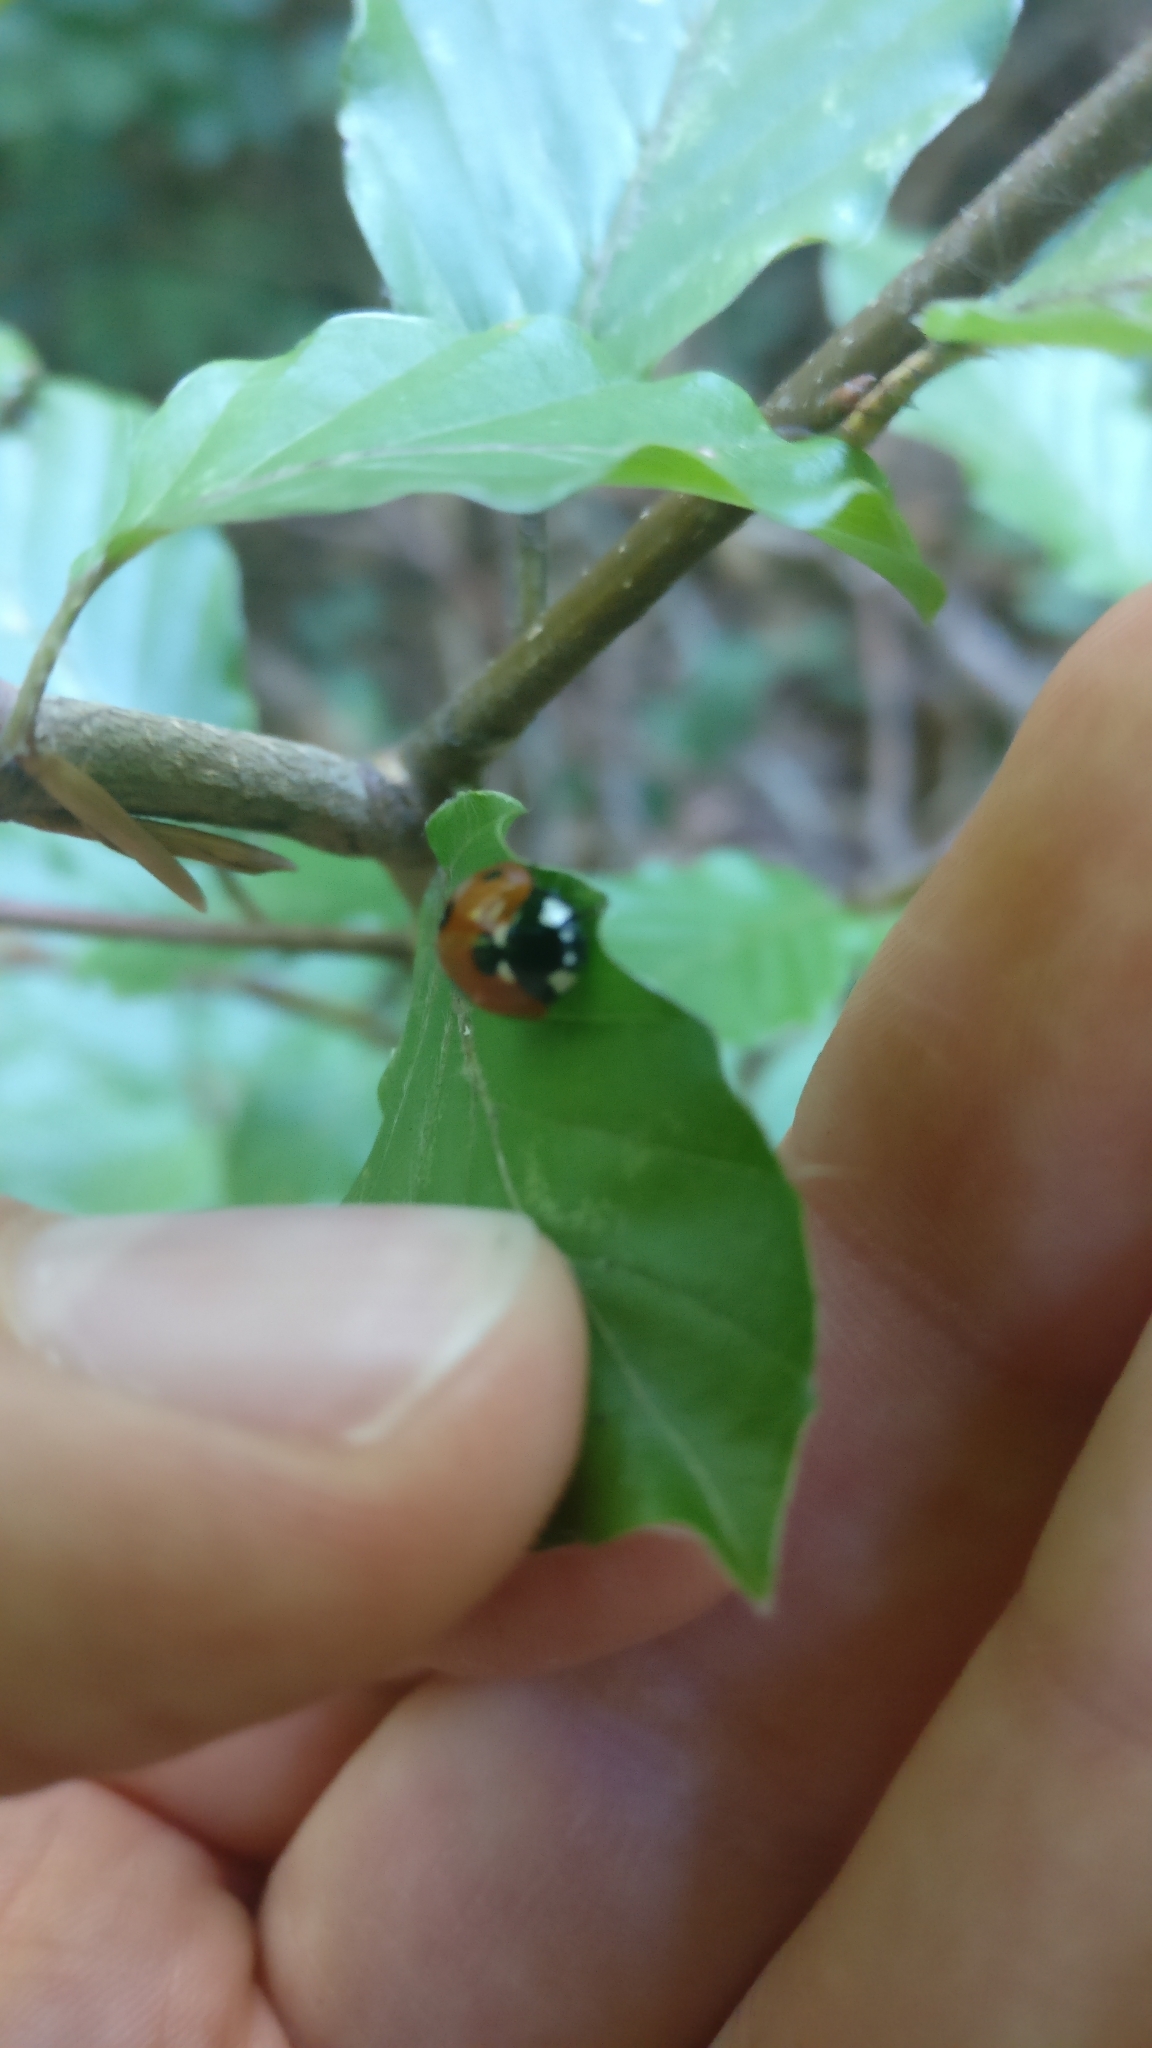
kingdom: Animalia
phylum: Arthropoda
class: Insecta
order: Coleoptera
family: Coccinellidae
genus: Coccinella
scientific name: Coccinella septempunctata
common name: Sevenspotted lady beetle
